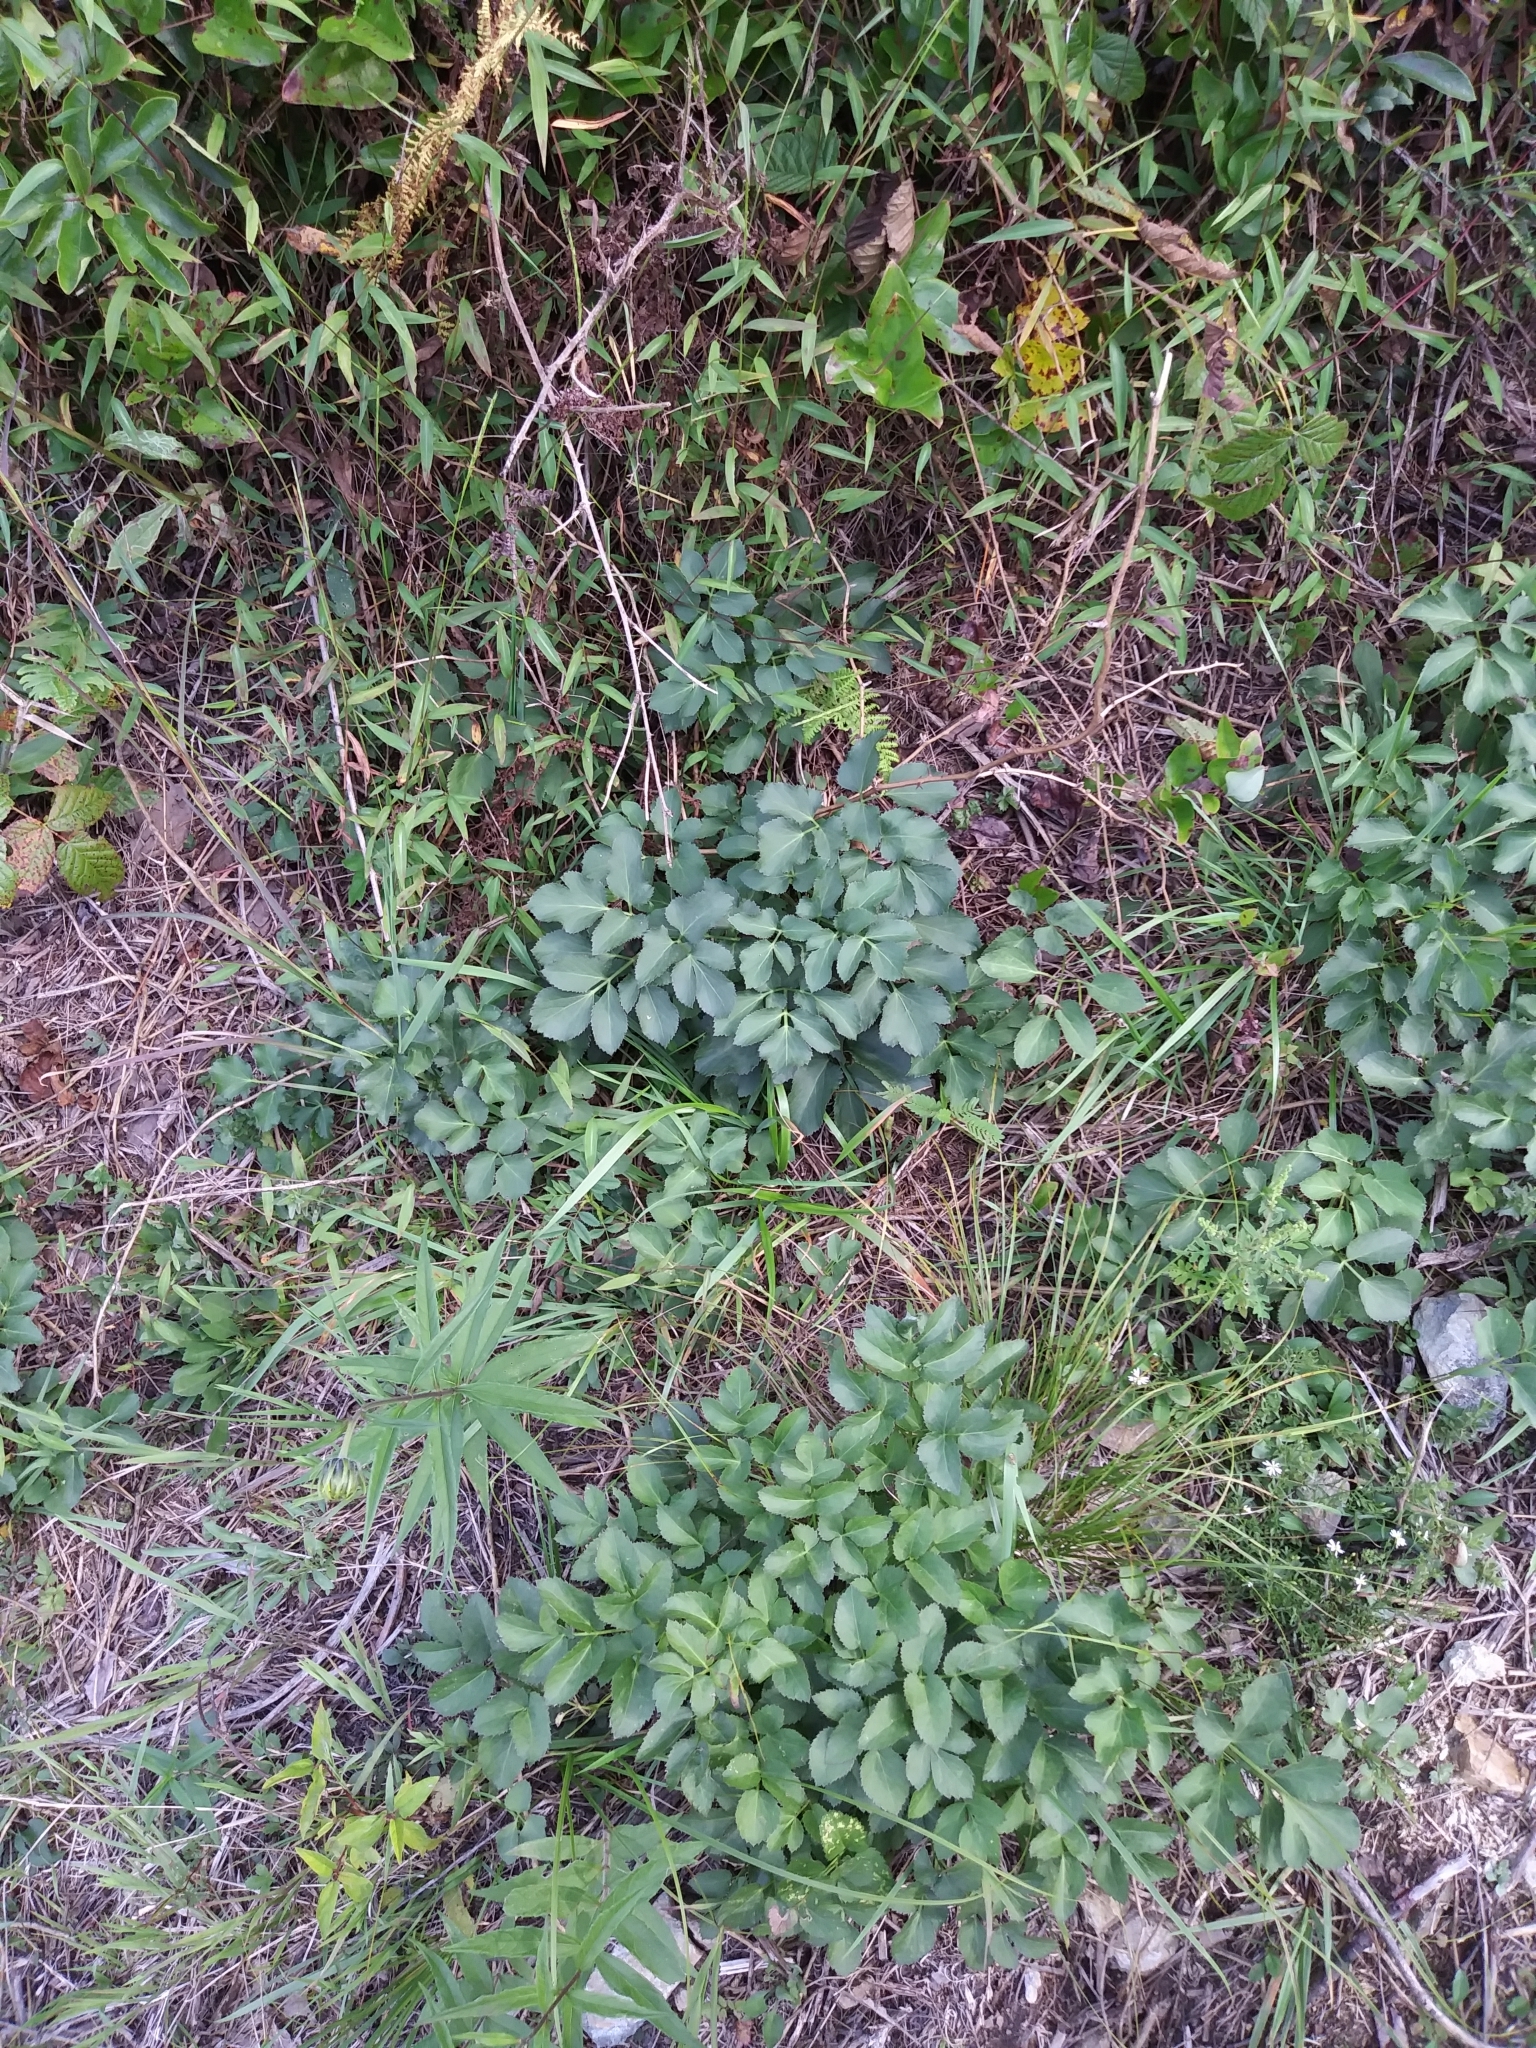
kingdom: Plantae
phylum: Tracheophyta
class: Magnoliopsida
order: Apiales
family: Apiaceae
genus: Zizia
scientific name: Zizia aurea
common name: Golden alexanders
